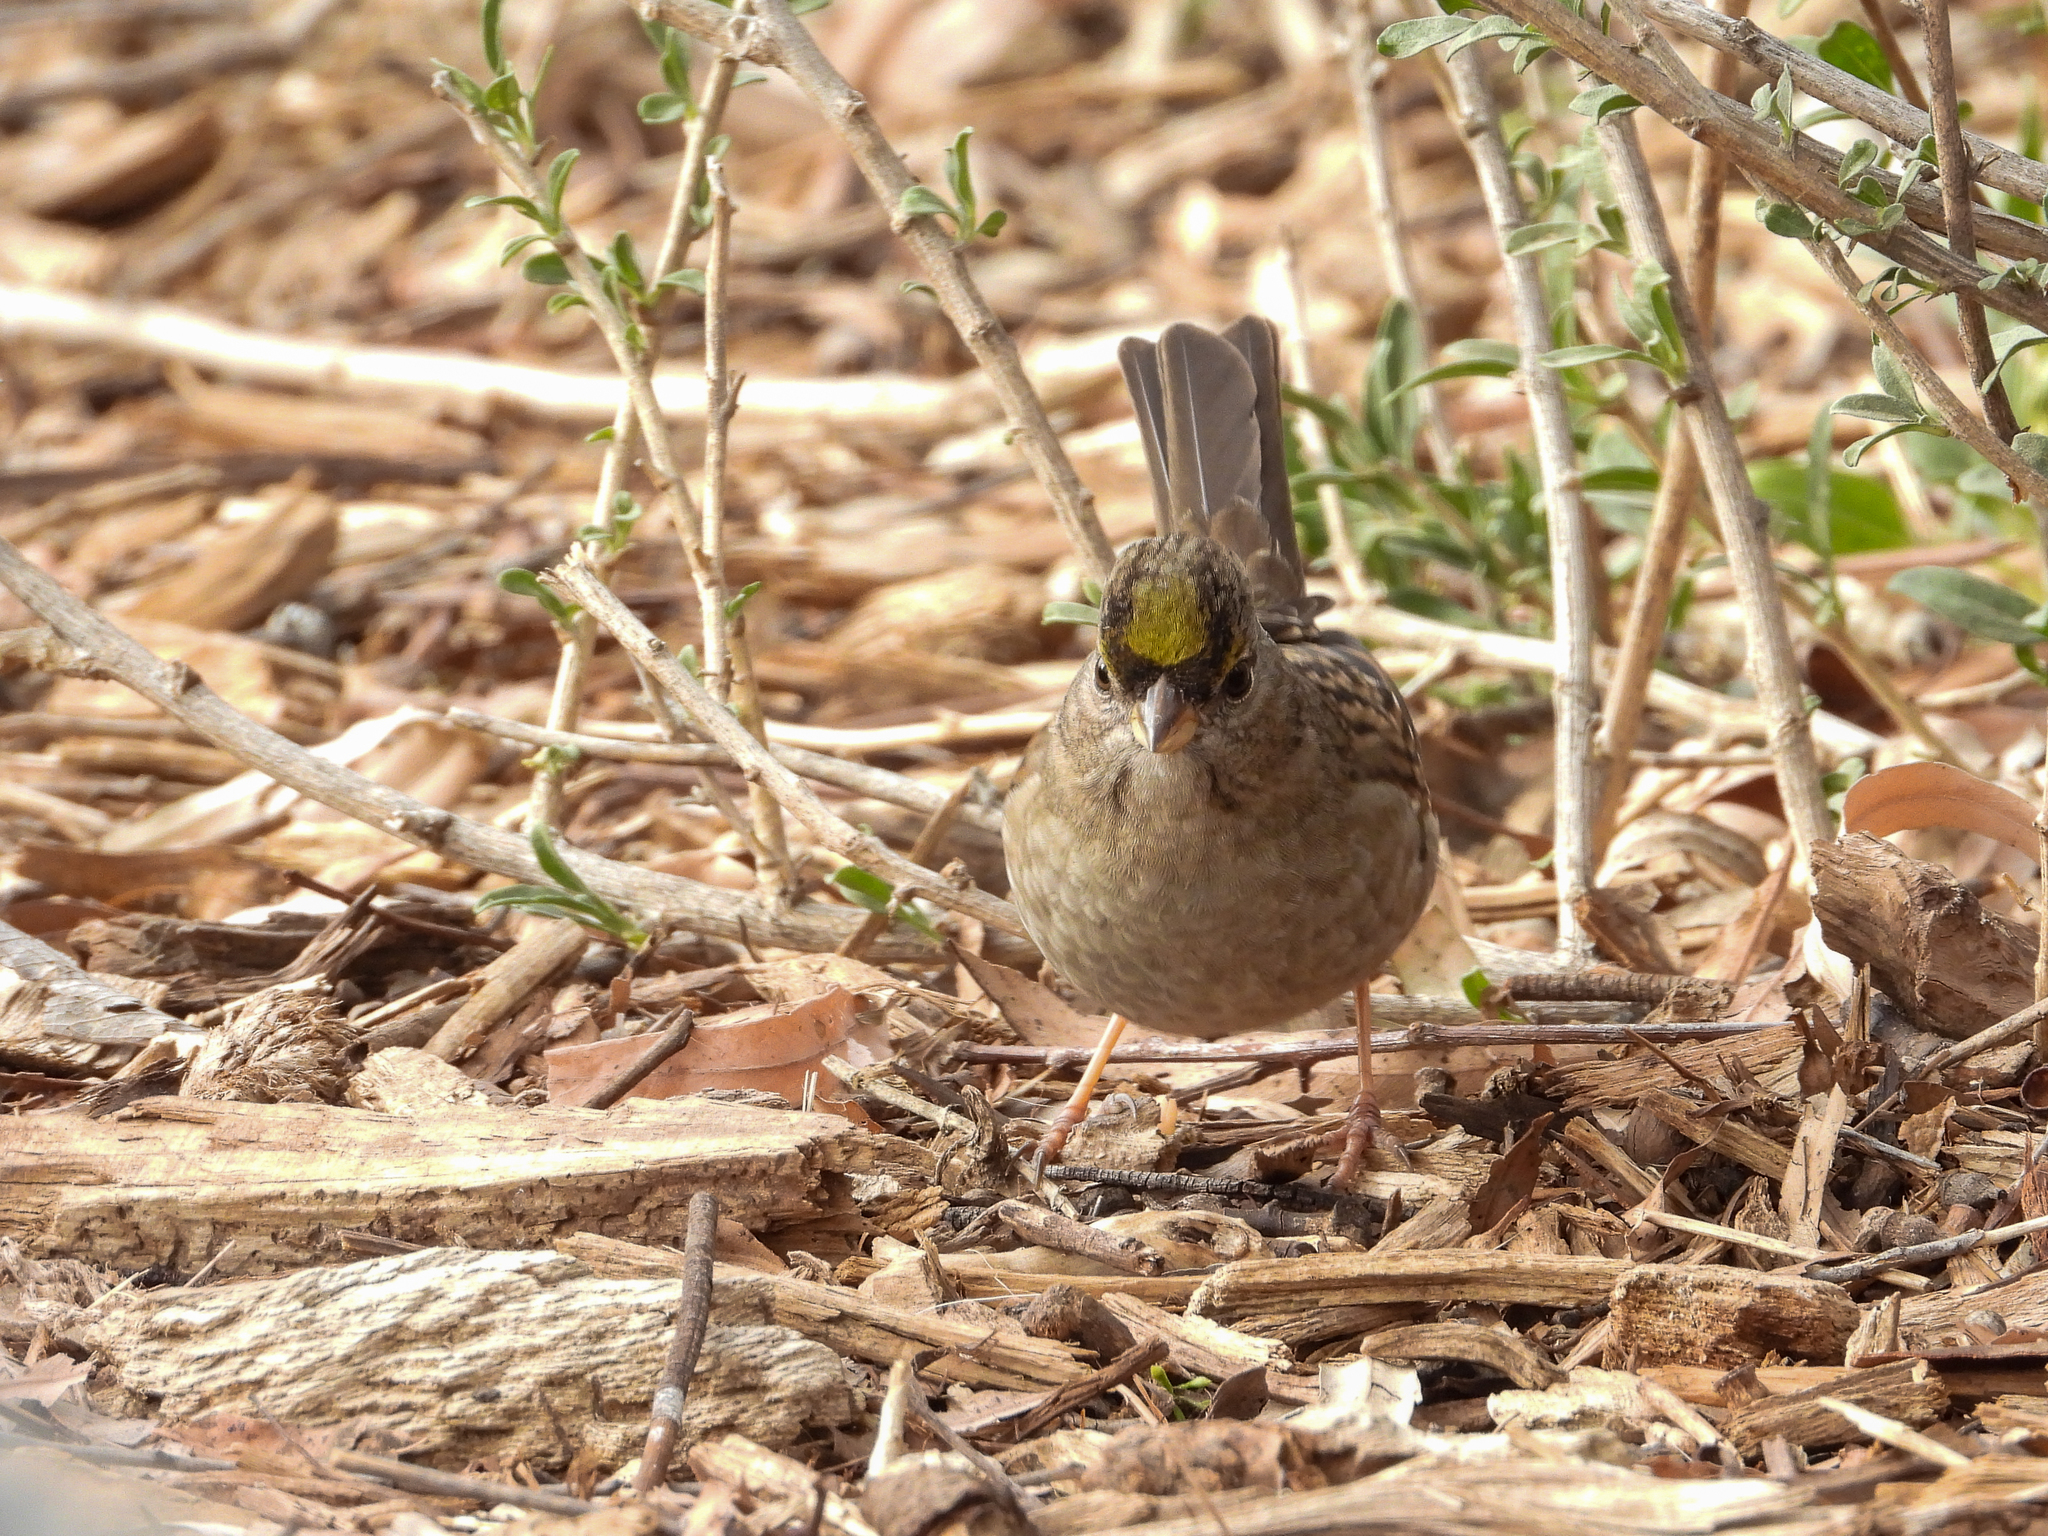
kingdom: Animalia
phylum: Chordata
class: Aves
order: Passeriformes
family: Passerellidae
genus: Zonotrichia
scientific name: Zonotrichia atricapilla
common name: Golden-crowned sparrow
